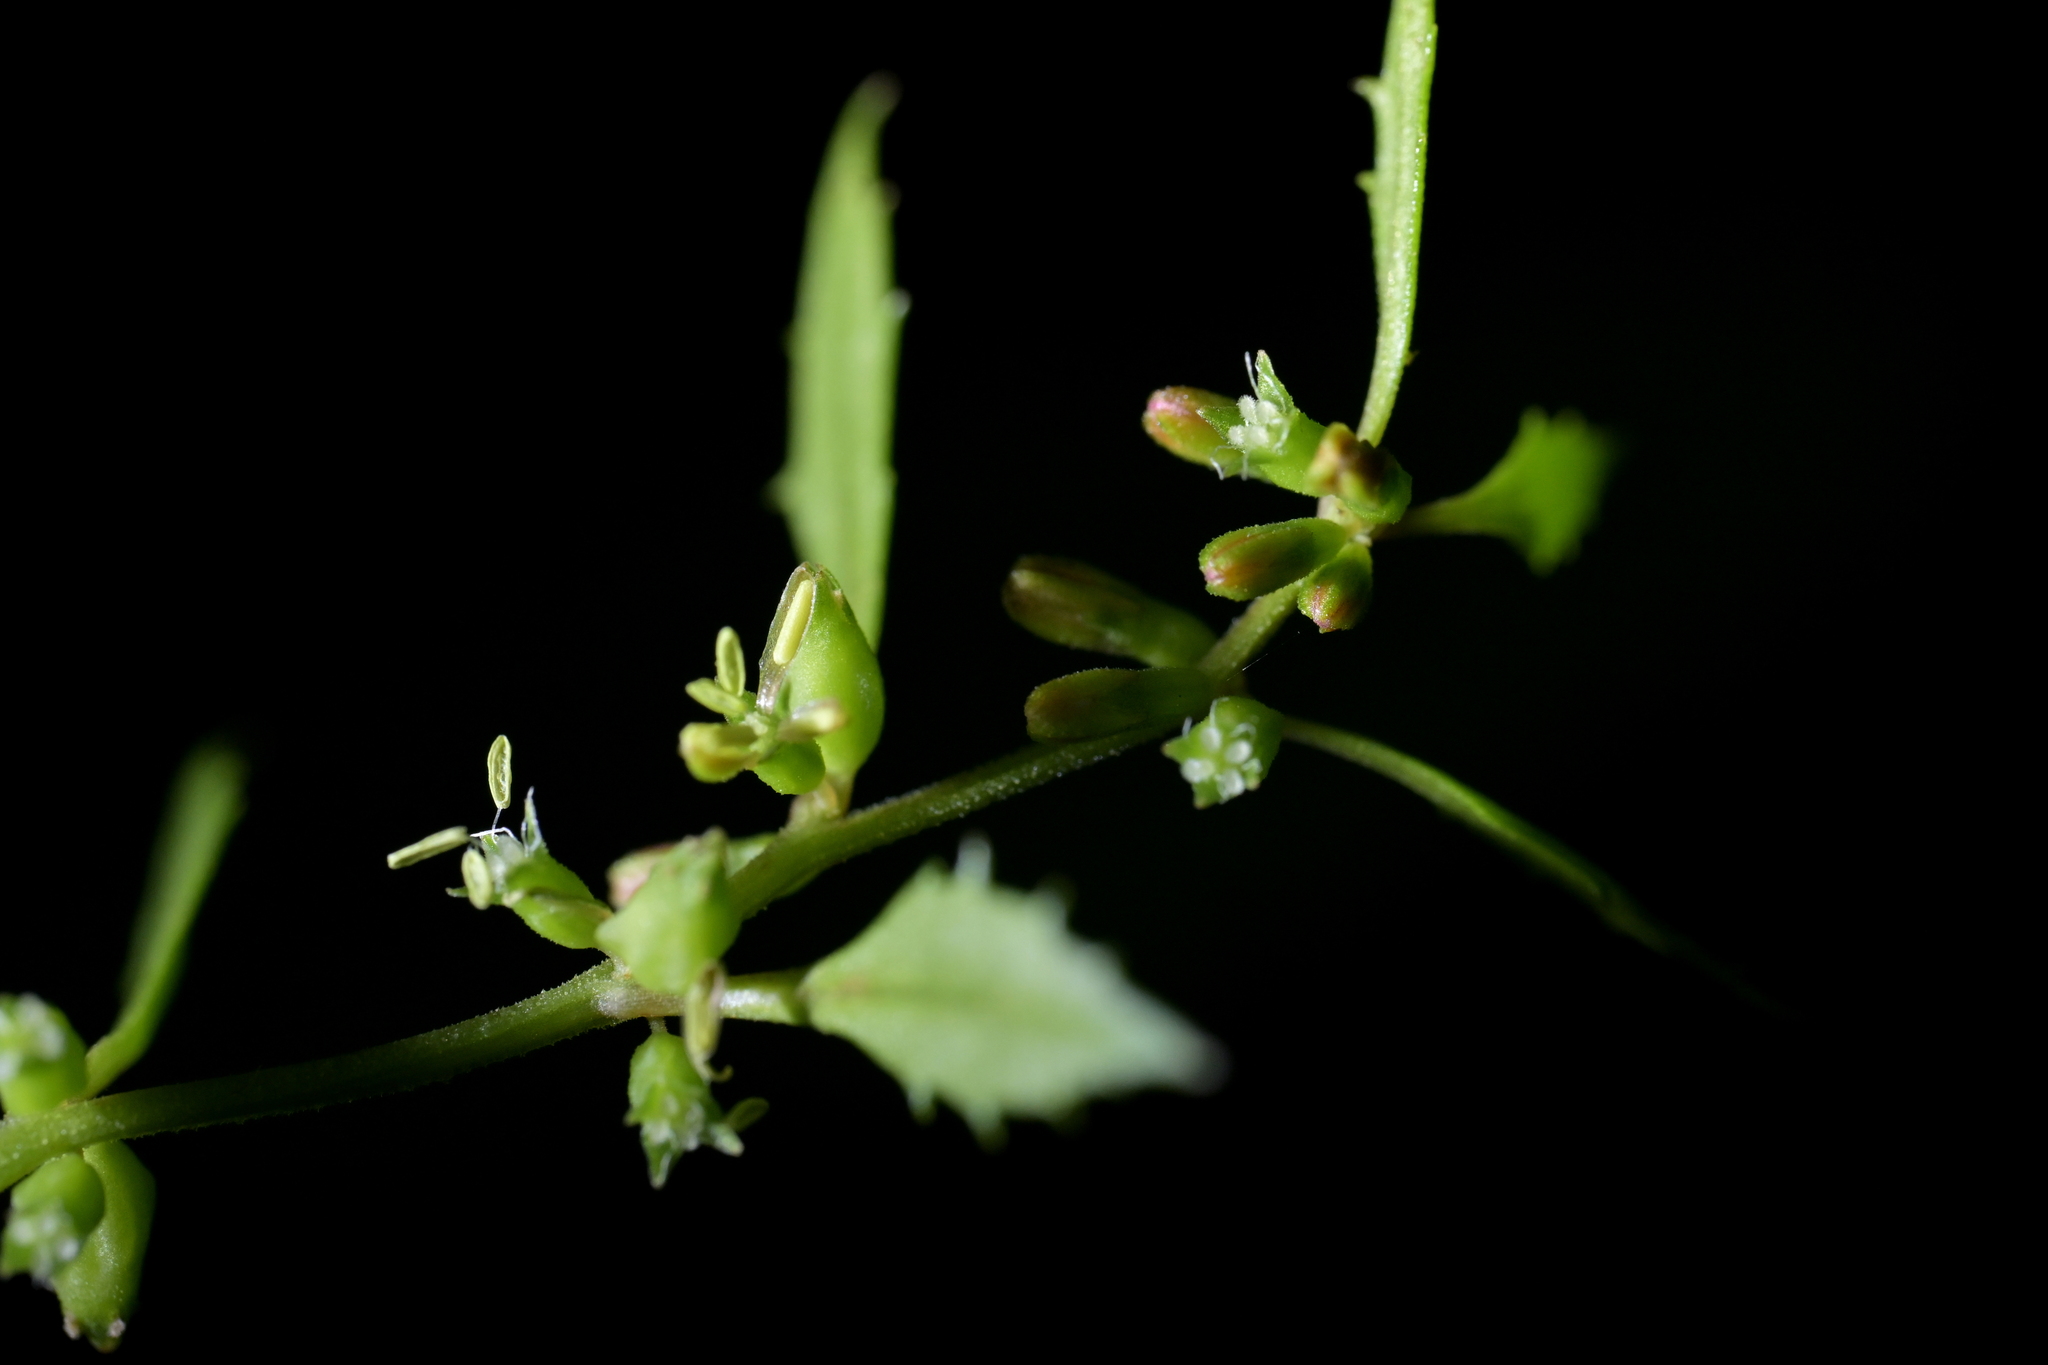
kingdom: Plantae
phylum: Tracheophyta
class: Magnoliopsida
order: Saxifragales
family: Haloragaceae
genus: Haloragis
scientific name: Haloragis erecta
